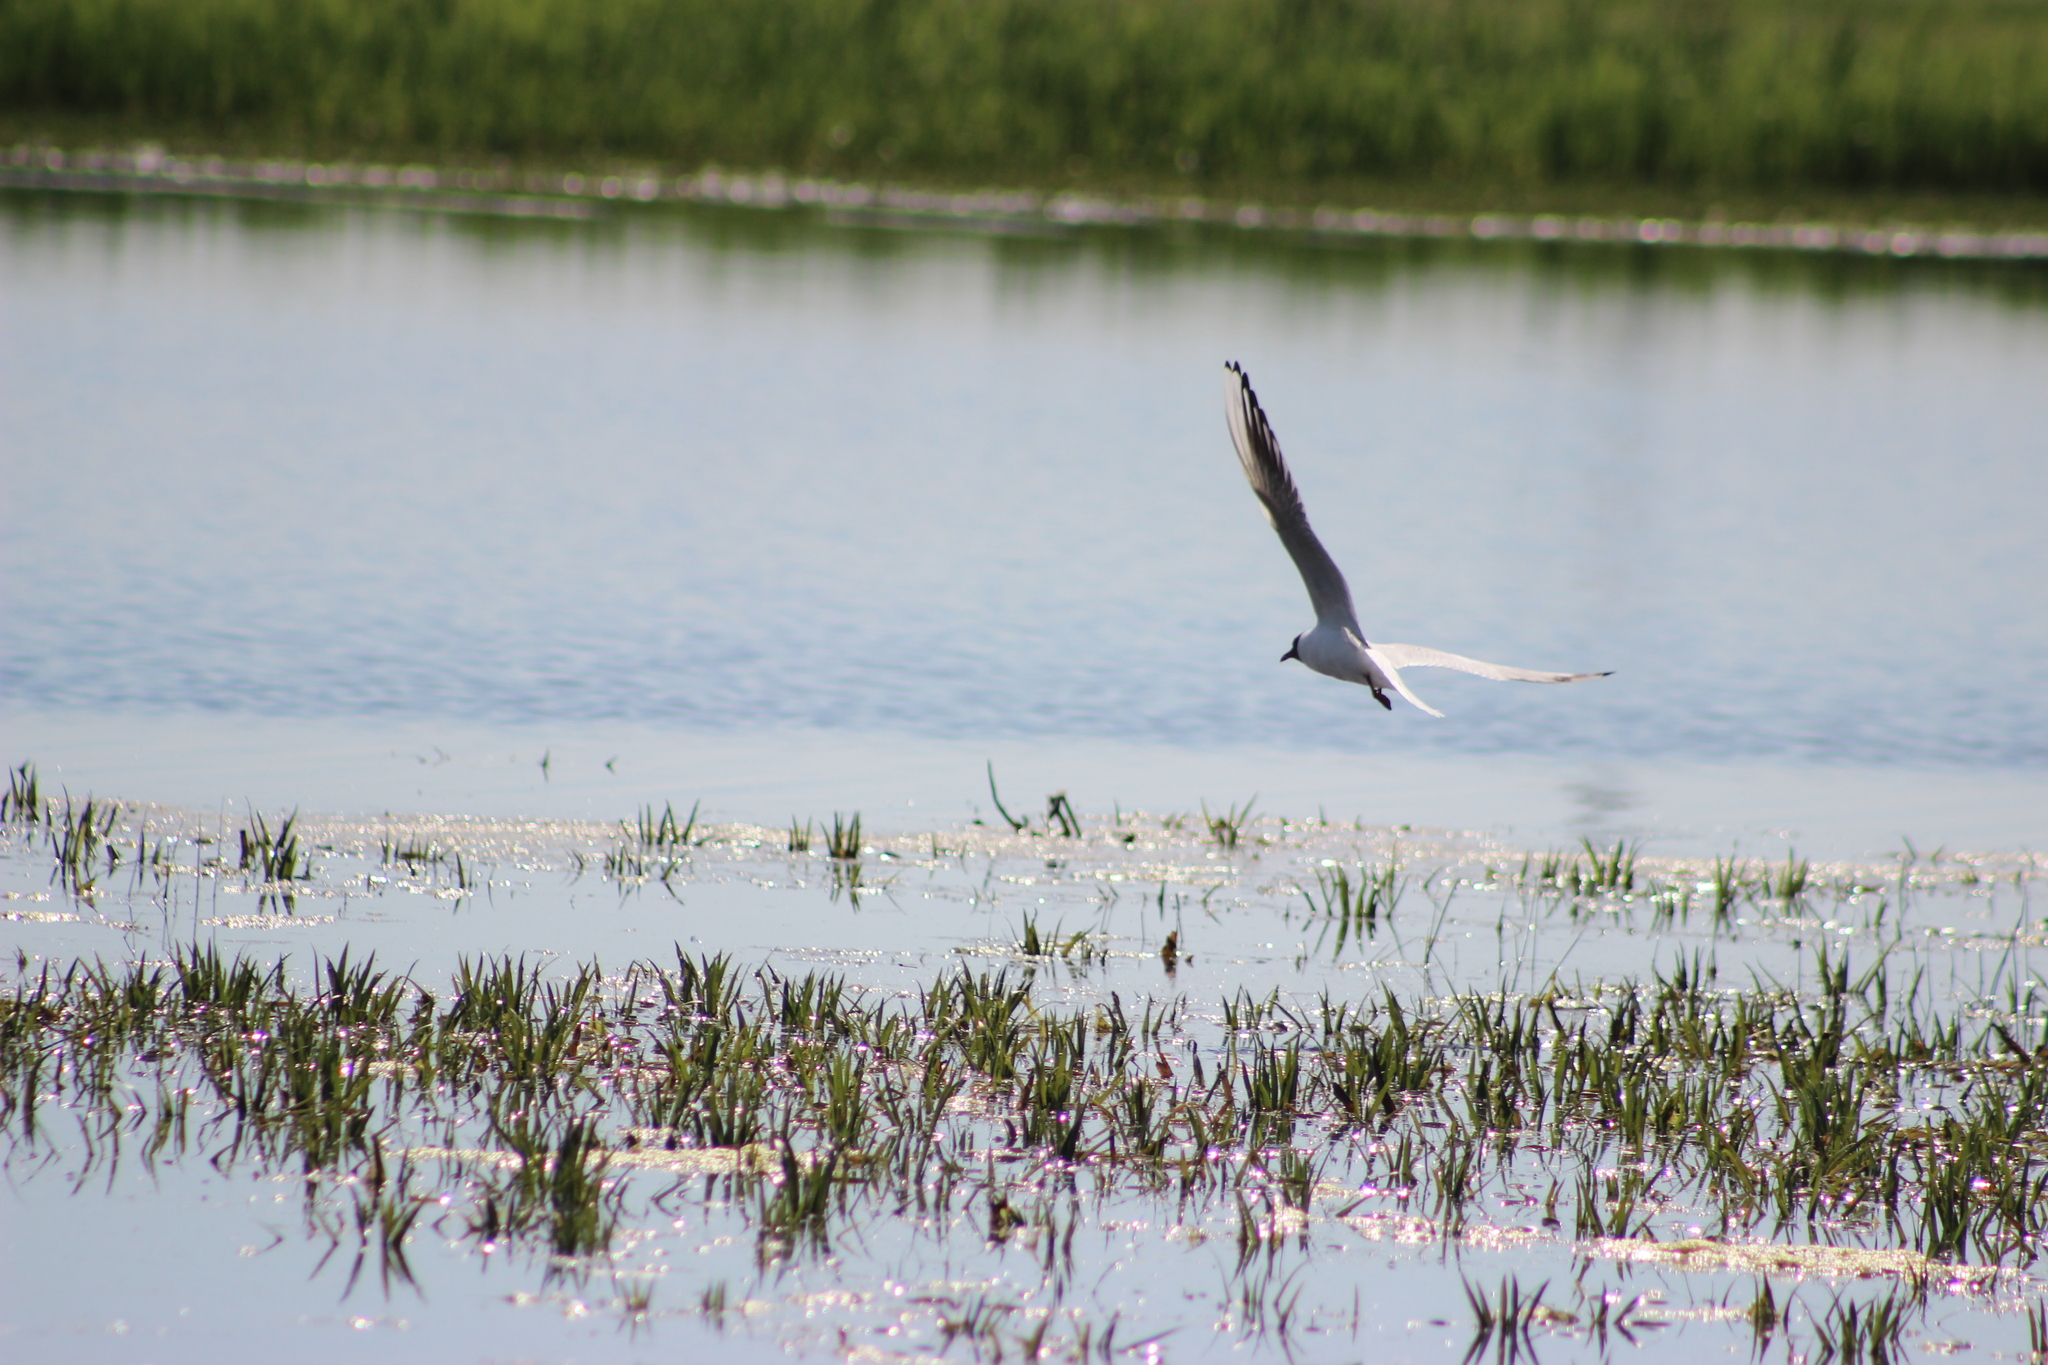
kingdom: Animalia
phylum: Chordata
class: Aves
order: Charadriiformes
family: Laridae
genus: Chroicocephalus
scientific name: Chroicocephalus ridibundus
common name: Black-headed gull
